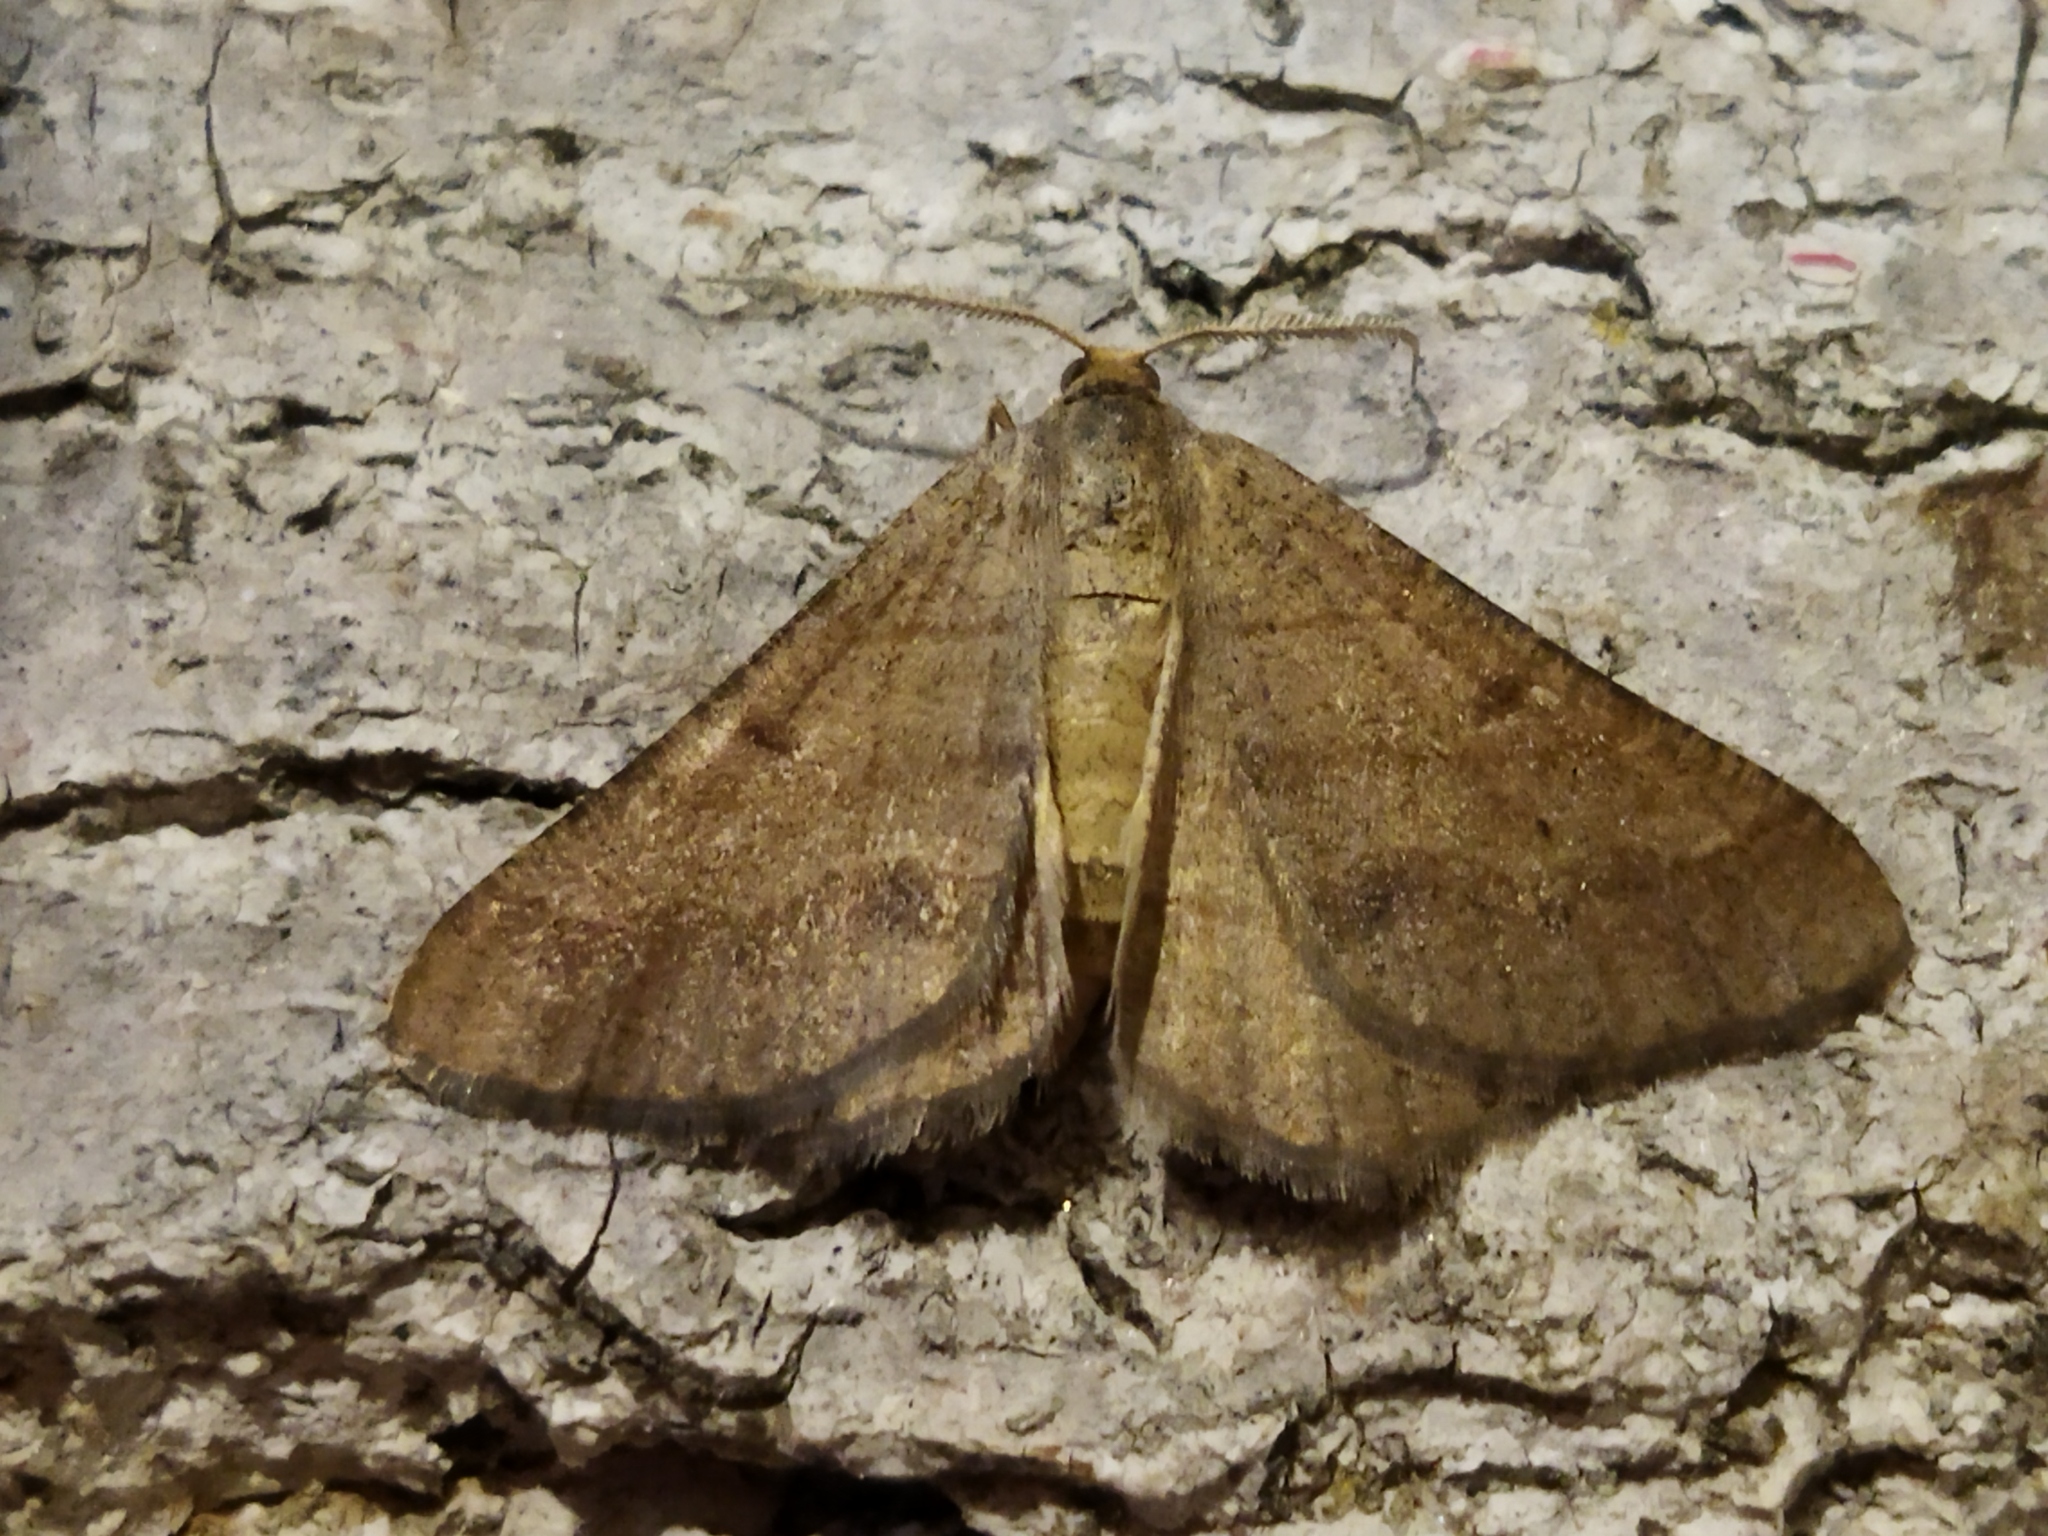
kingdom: Animalia
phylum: Arthropoda
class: Insecta
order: Lepidoptera
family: Geometridae
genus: Tephrina
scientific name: Tephrina murinaria
